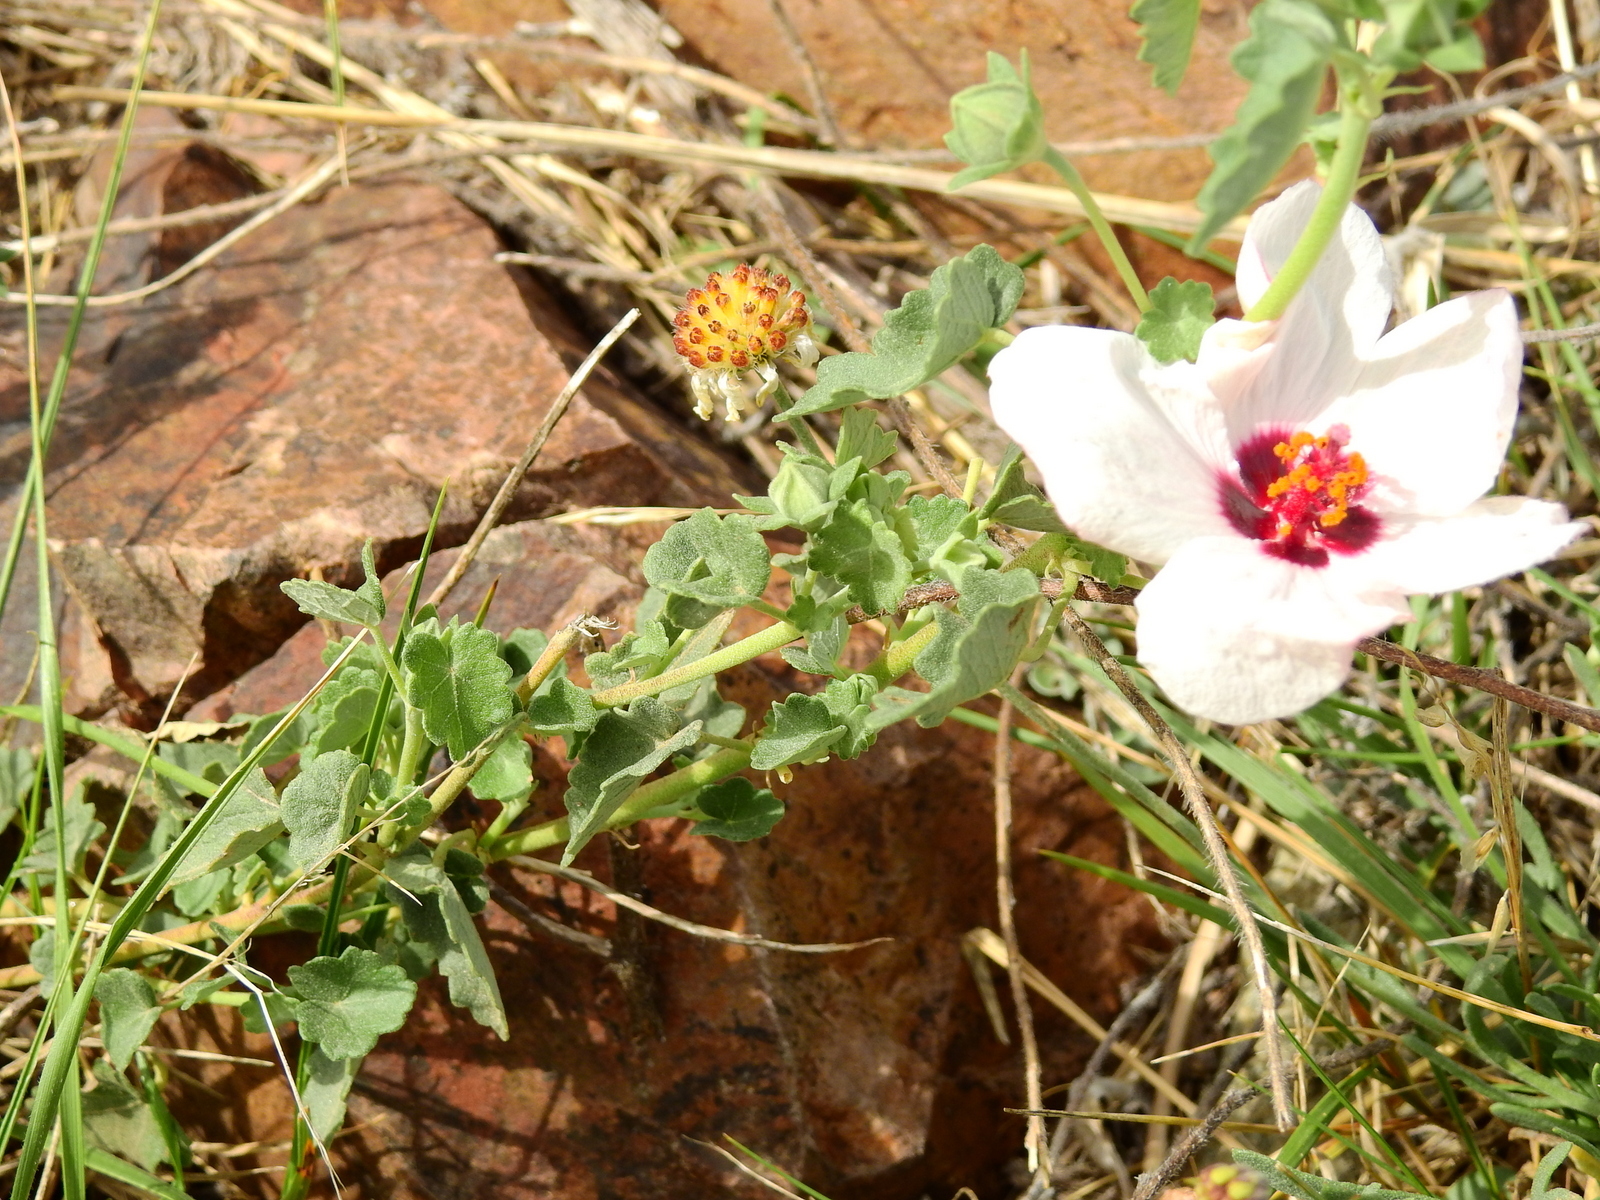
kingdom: Plantae
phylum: Tracheophyta
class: Magnoliopsida
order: Malvales
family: Malvaceae
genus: Pavonia
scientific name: Pavonia cymbalaria
